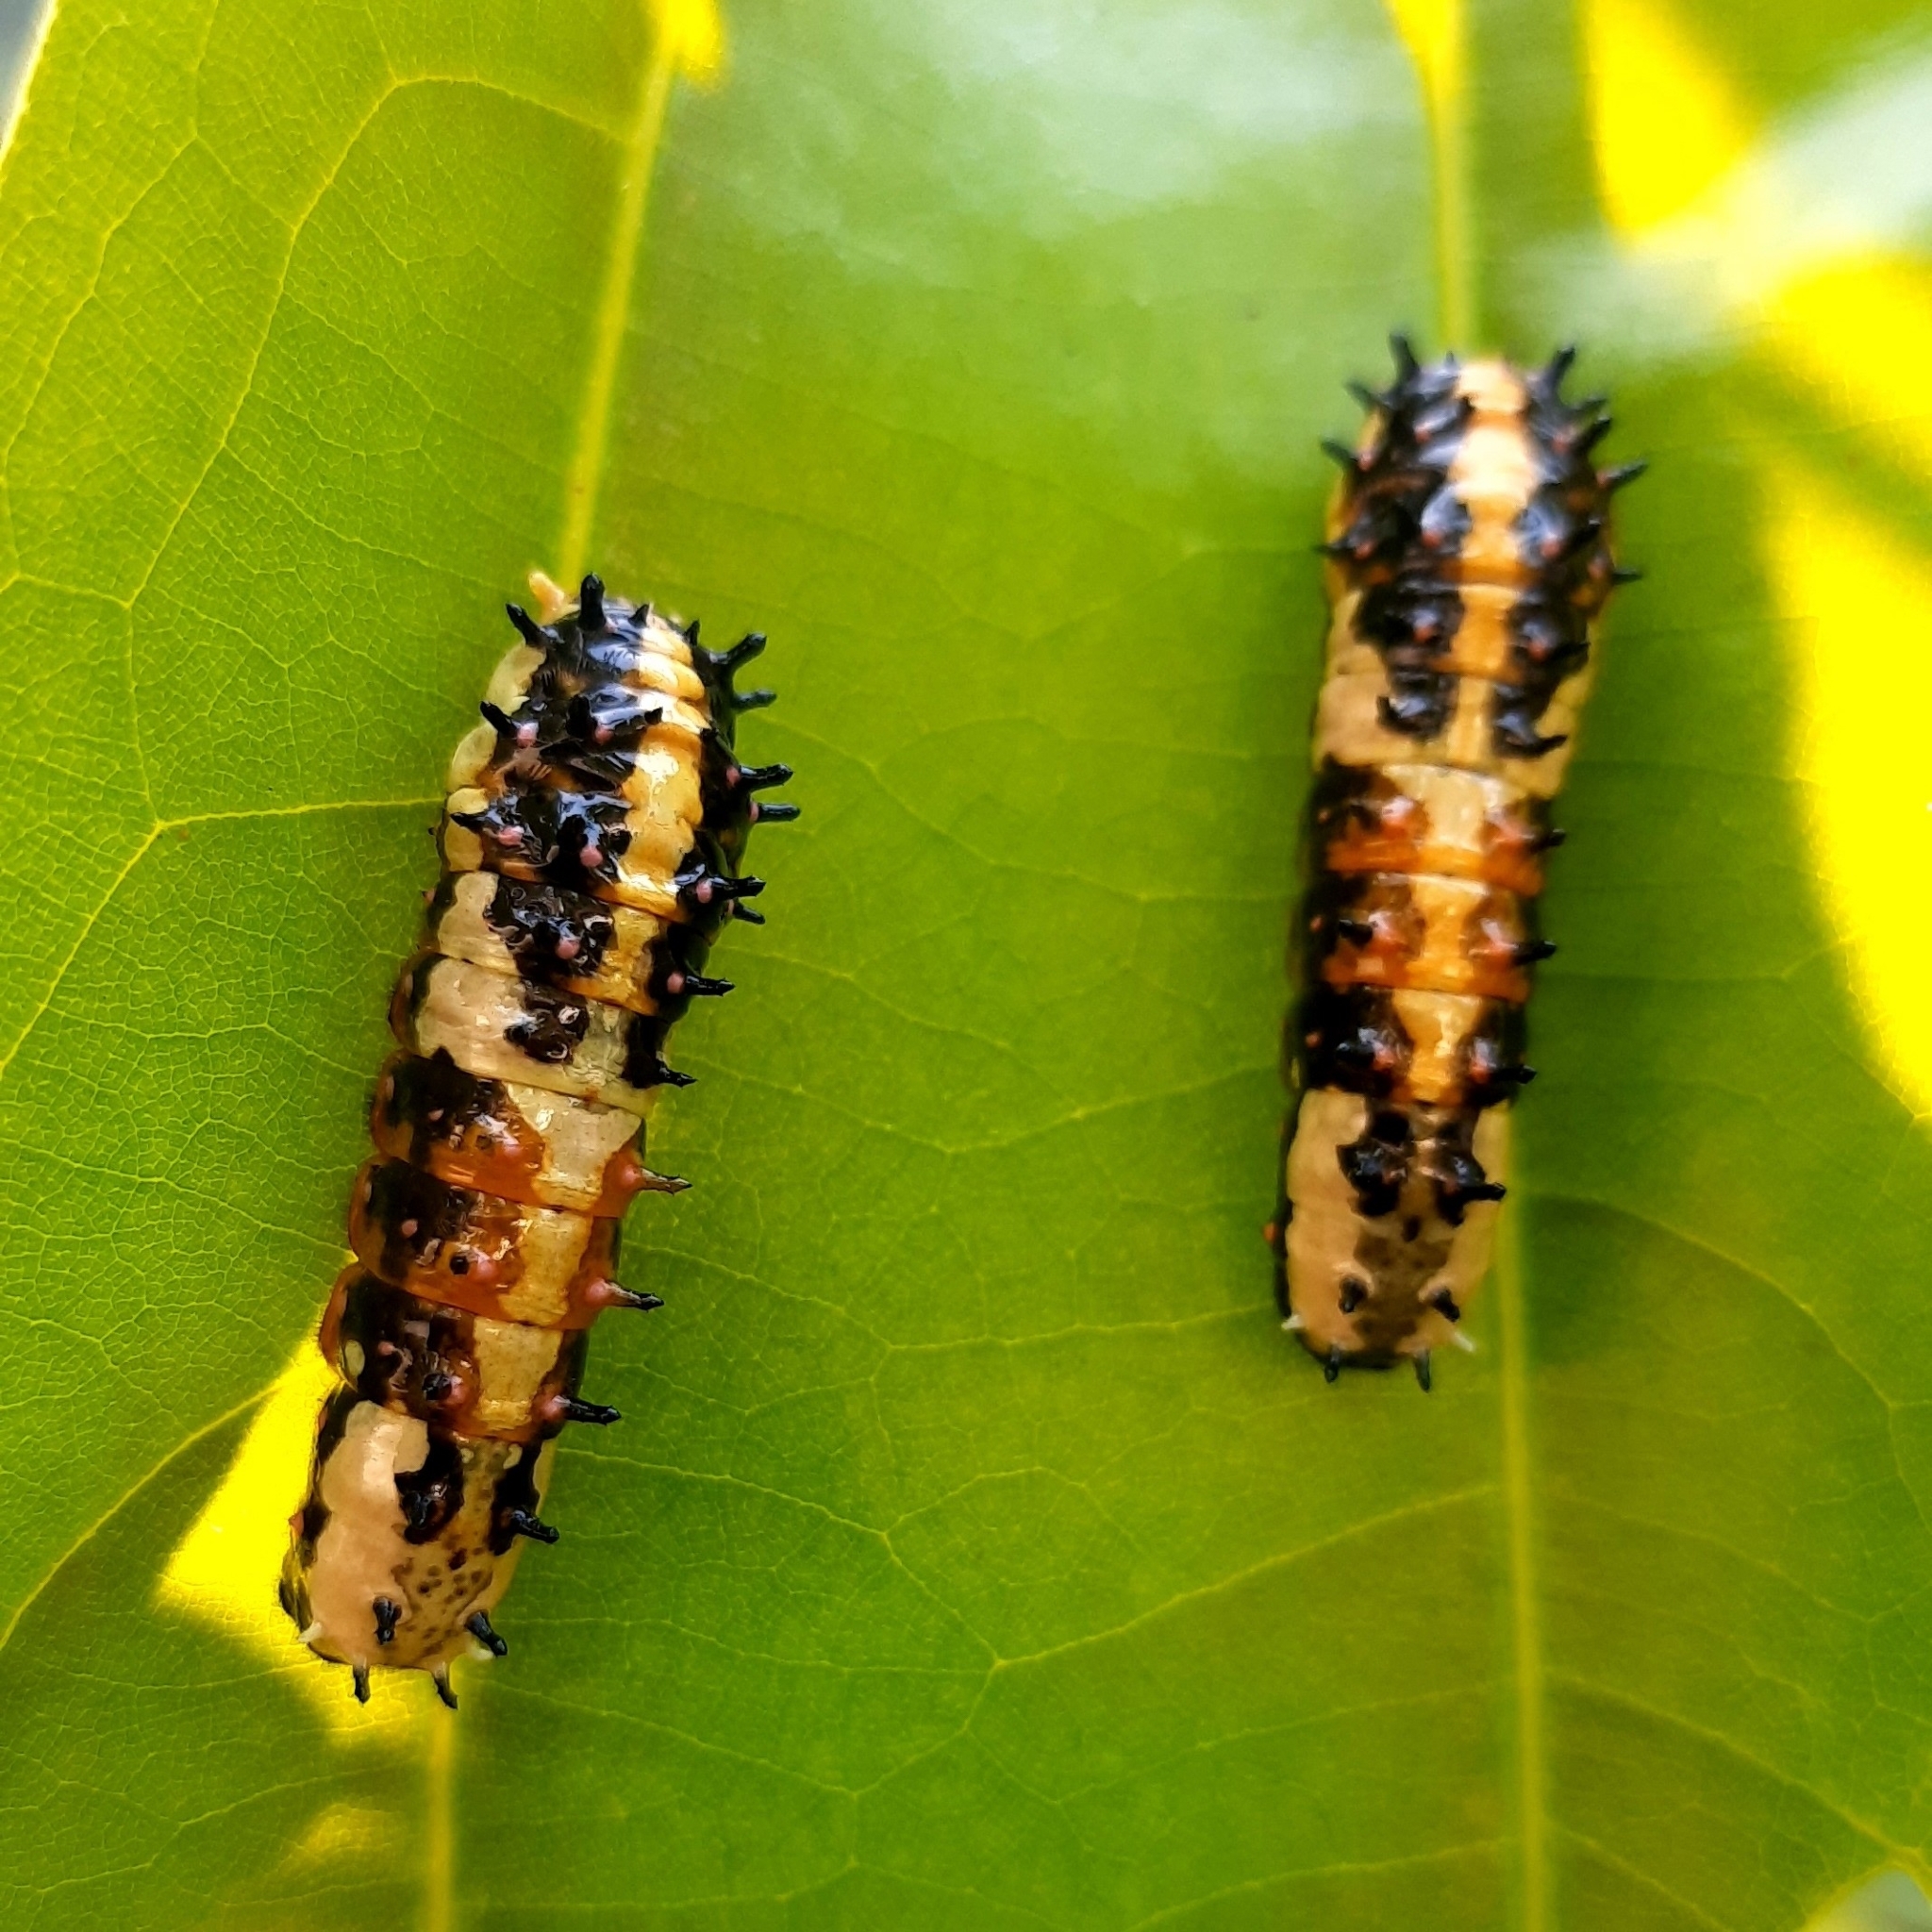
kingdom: Animalia
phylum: Arthropoda
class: Insecta
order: Lepidoptera
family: Papilionidae
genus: Chilasa
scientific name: Chilasa clytia
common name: Common mime
